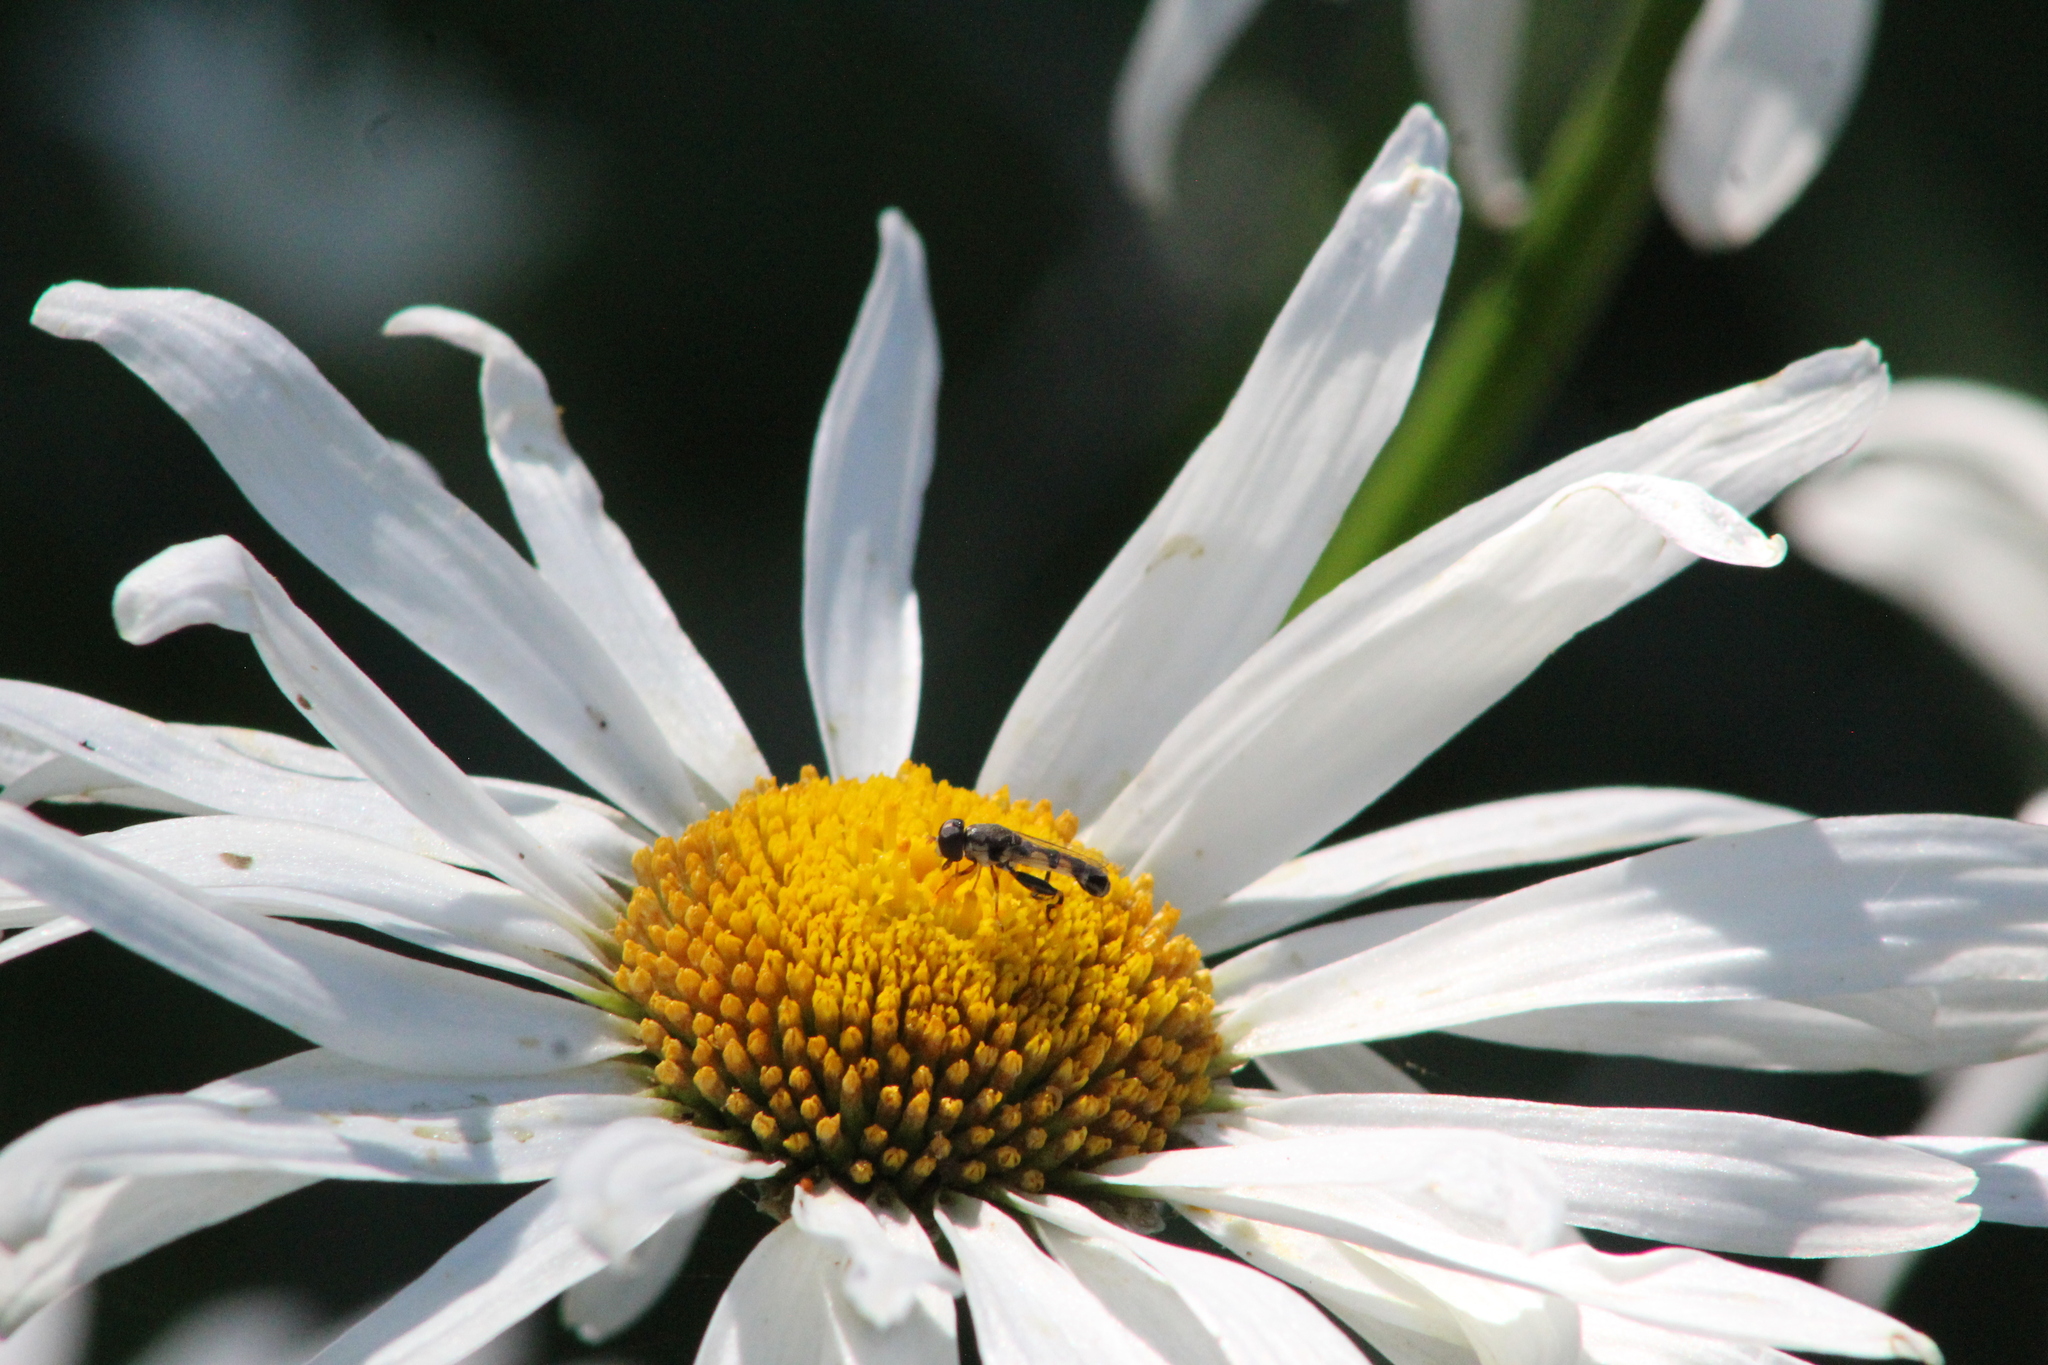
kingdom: Animalia
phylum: Arthropoda
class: Insecta
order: Diptera
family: Syrphidae
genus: Syritta
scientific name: Syritta pipiens
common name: Hover fly
